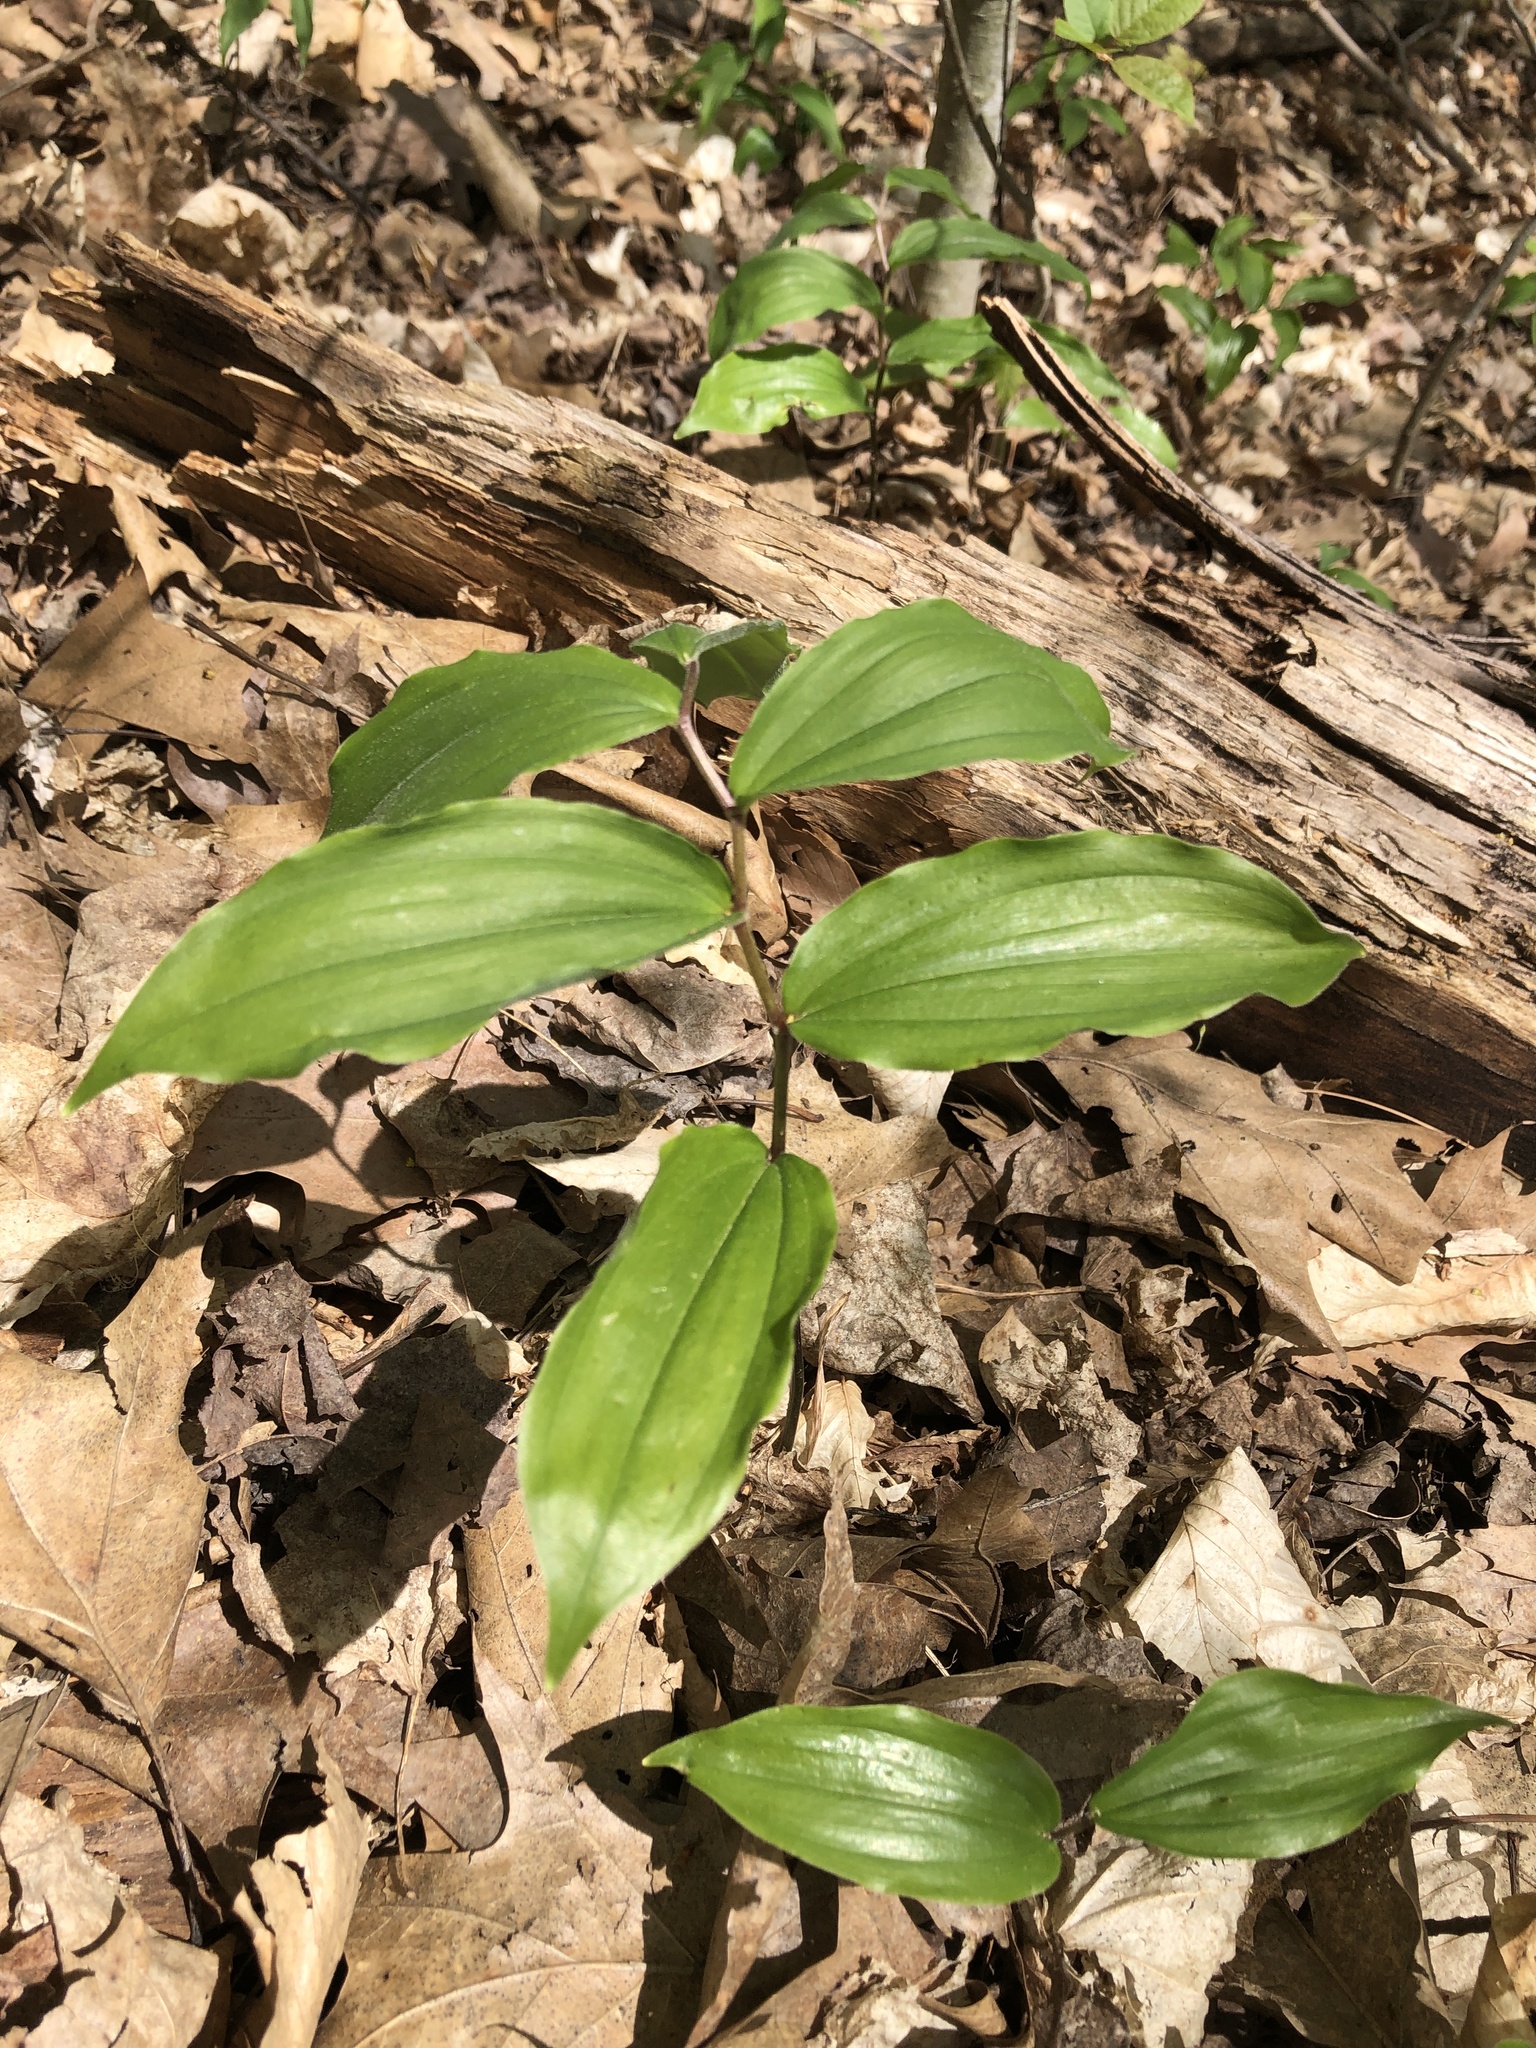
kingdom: Plantae
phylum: Tracheophyta
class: Liliopsida
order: Asparagales
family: Asparagaceae
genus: Maianthemum
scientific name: Maianthemum racemosum
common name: False spikenard
